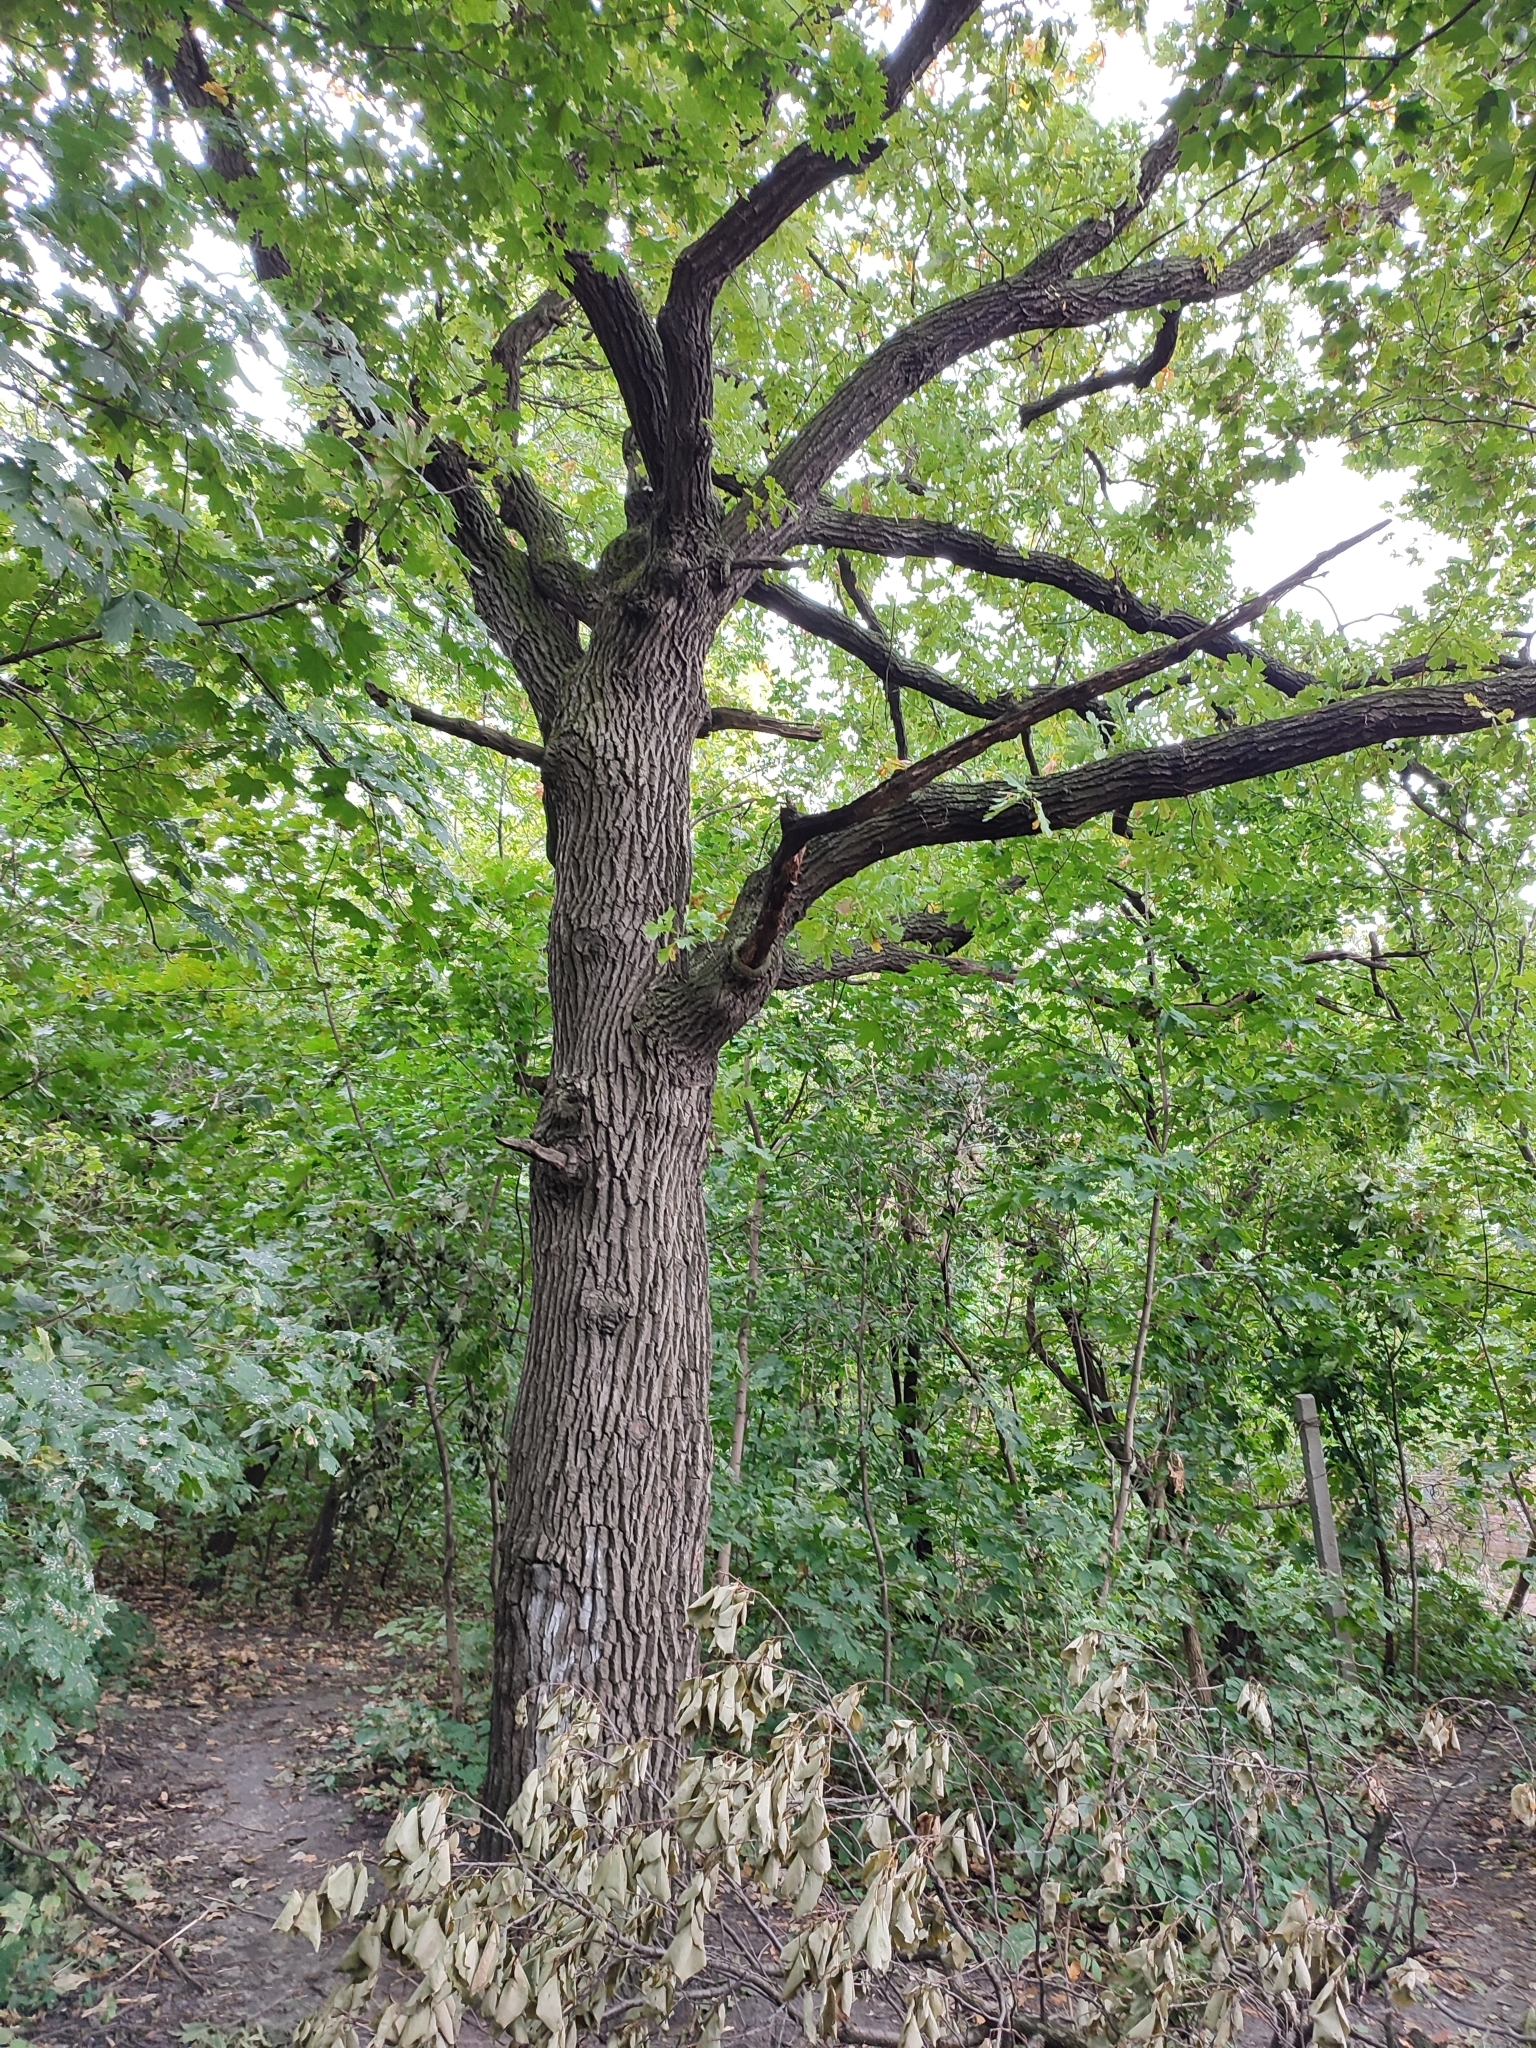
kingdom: Plantae
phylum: Tracheophyta
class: Magnoliopsida
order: Fagales
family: Fagaceae
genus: Quercus
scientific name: Quercus robur
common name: Pedunculate oak
